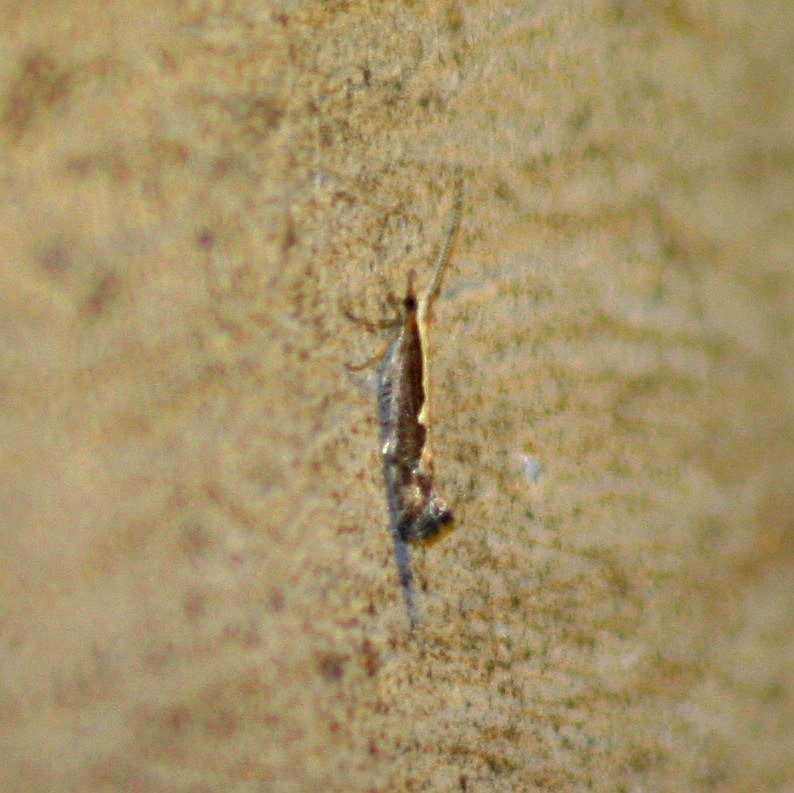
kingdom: Animalia
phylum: Arthropoda
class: Insecta
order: Lepidoptera
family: Plutellidae
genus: Plutella
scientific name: Plutella xylostella
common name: Diamond-back moth
